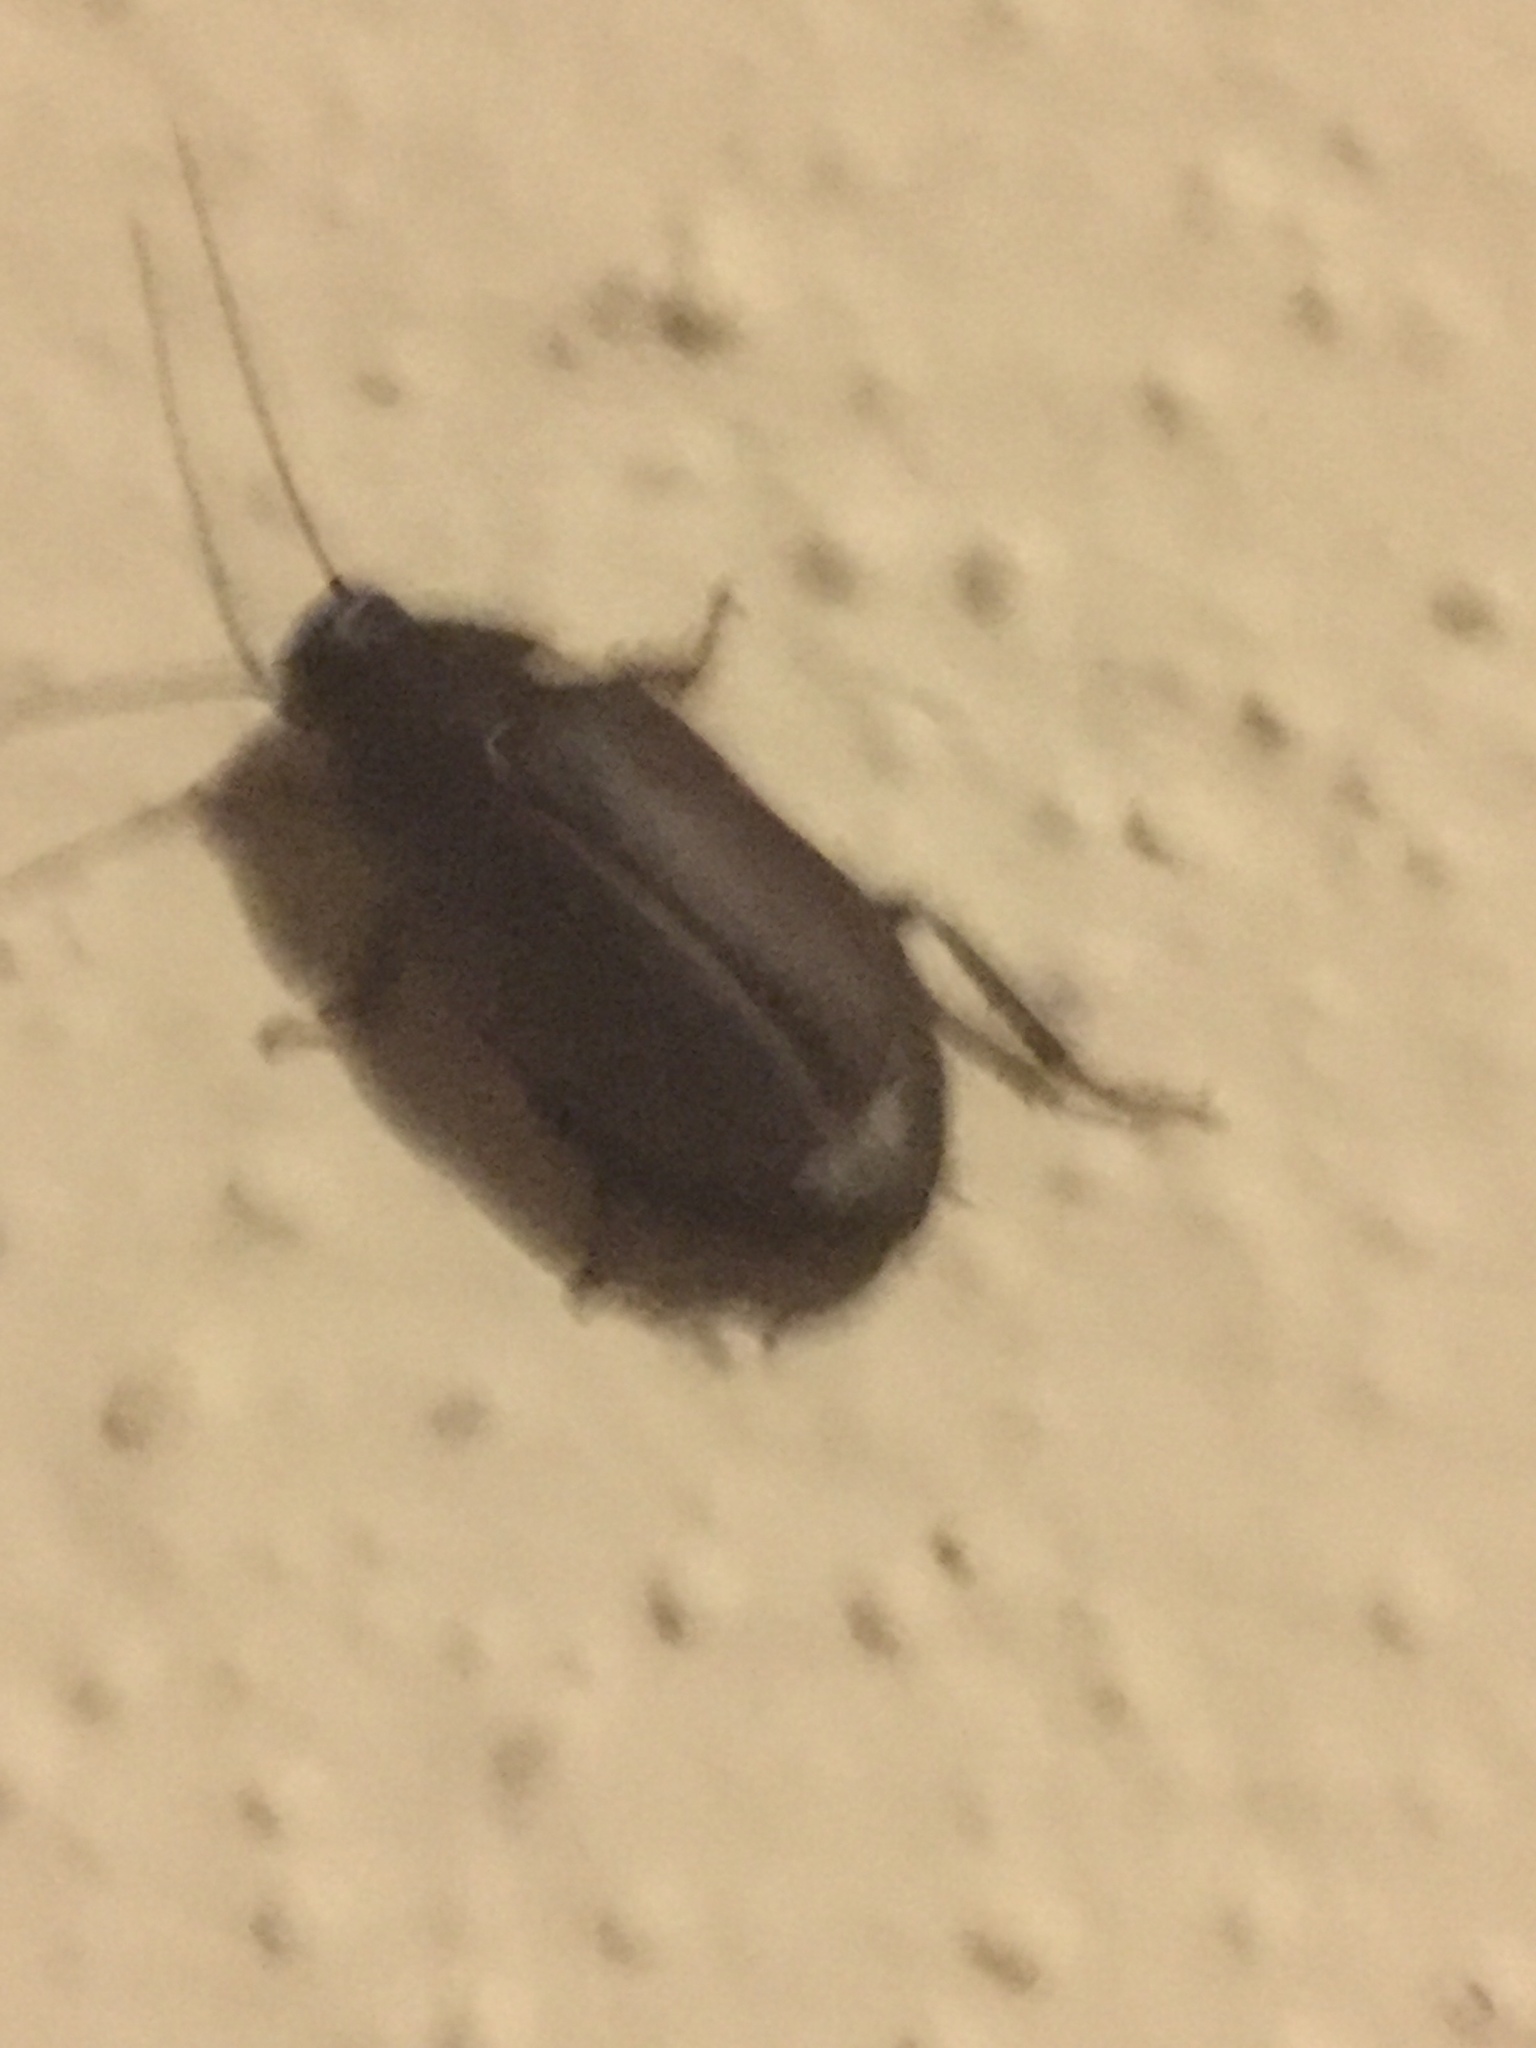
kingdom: Animalia
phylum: Arthropoda
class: Insecta
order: Blattodea
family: Blaberidae
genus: Diploptera
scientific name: Diploptera punctata
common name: Pacific beetle cockroach
